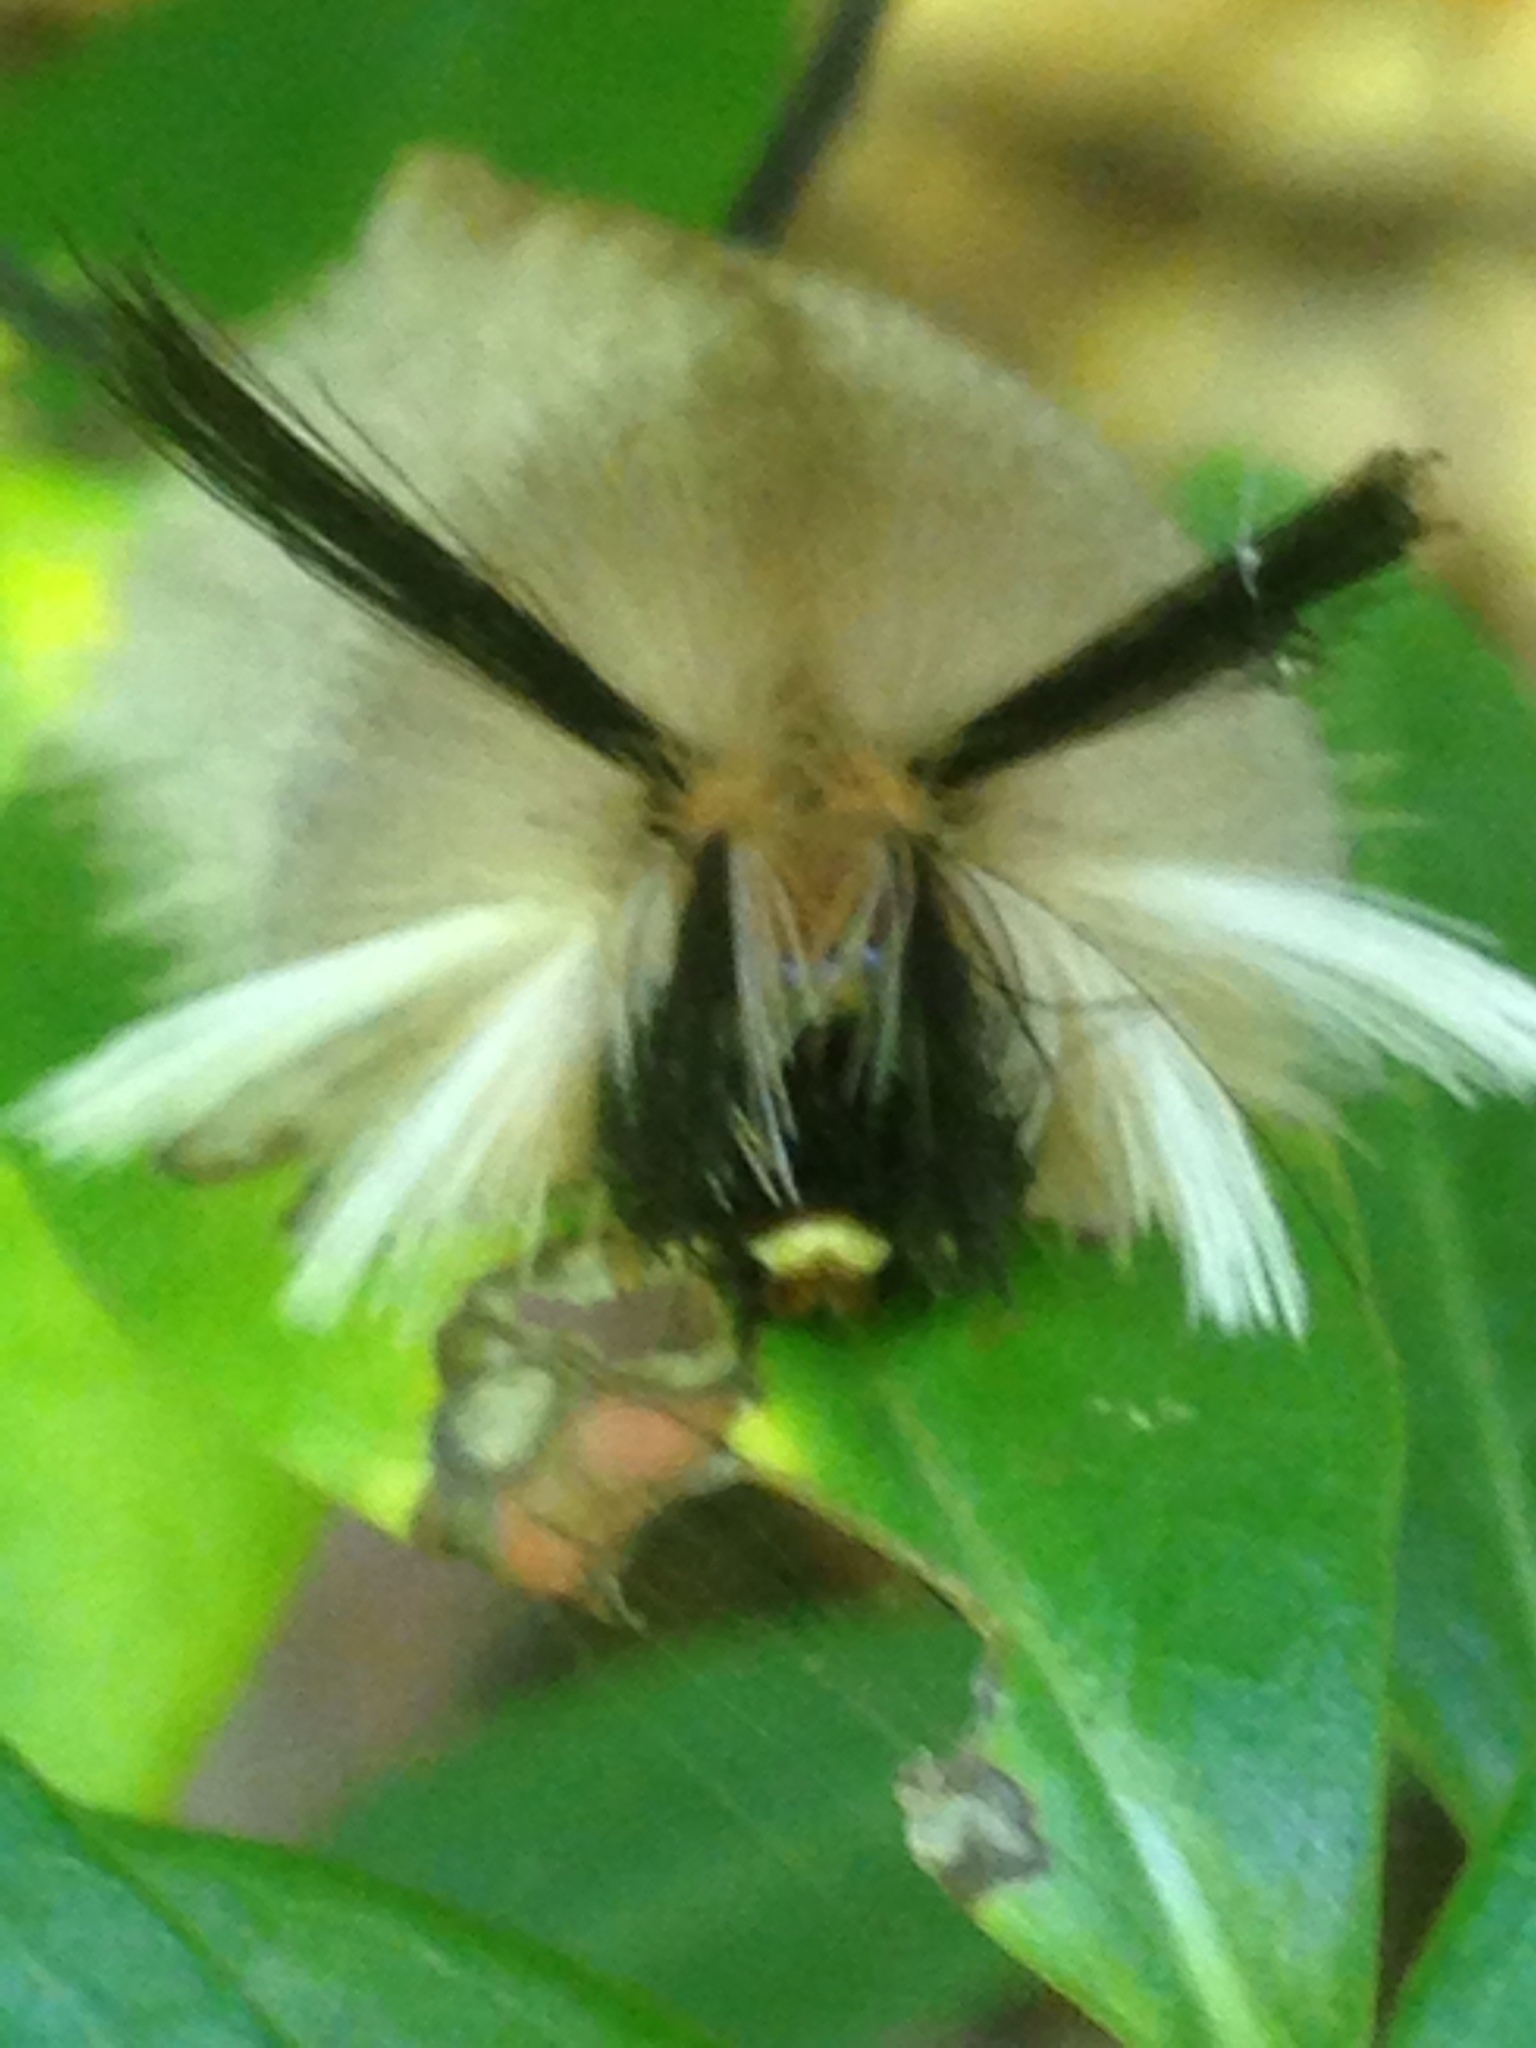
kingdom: Animalia
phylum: Arthropoda
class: Insecta
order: Lepidoptera
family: Erebidae
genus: Halysidota
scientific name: Halysidota tessellaris
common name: Banded tussock moth
